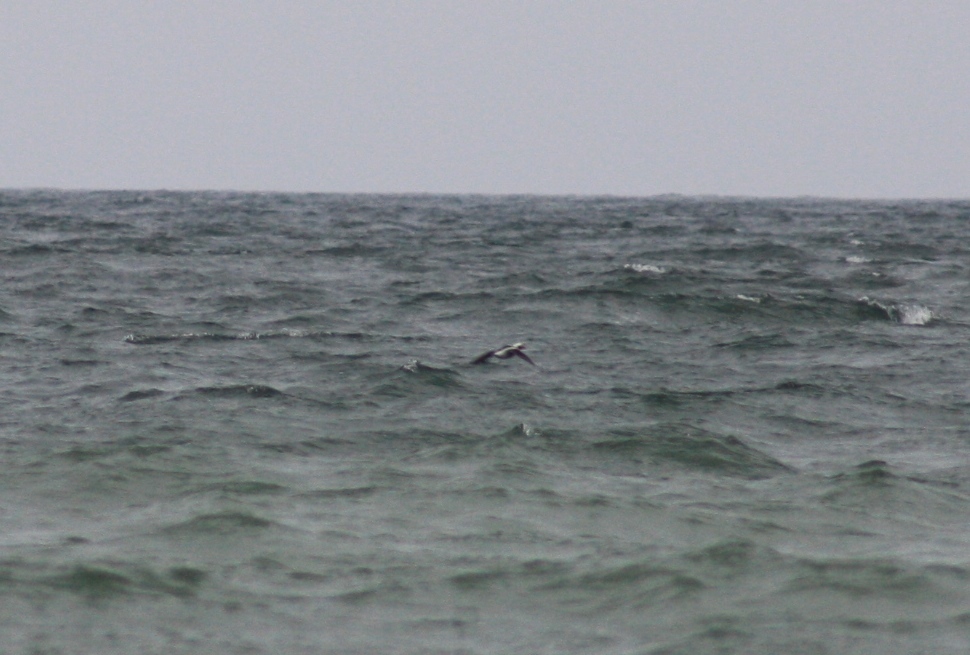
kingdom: Animalia
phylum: Chordata
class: Aves
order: Anseriformes
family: Anatidae
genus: Clangula
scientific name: Clangula hyemalis
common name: Long-tailed duck
